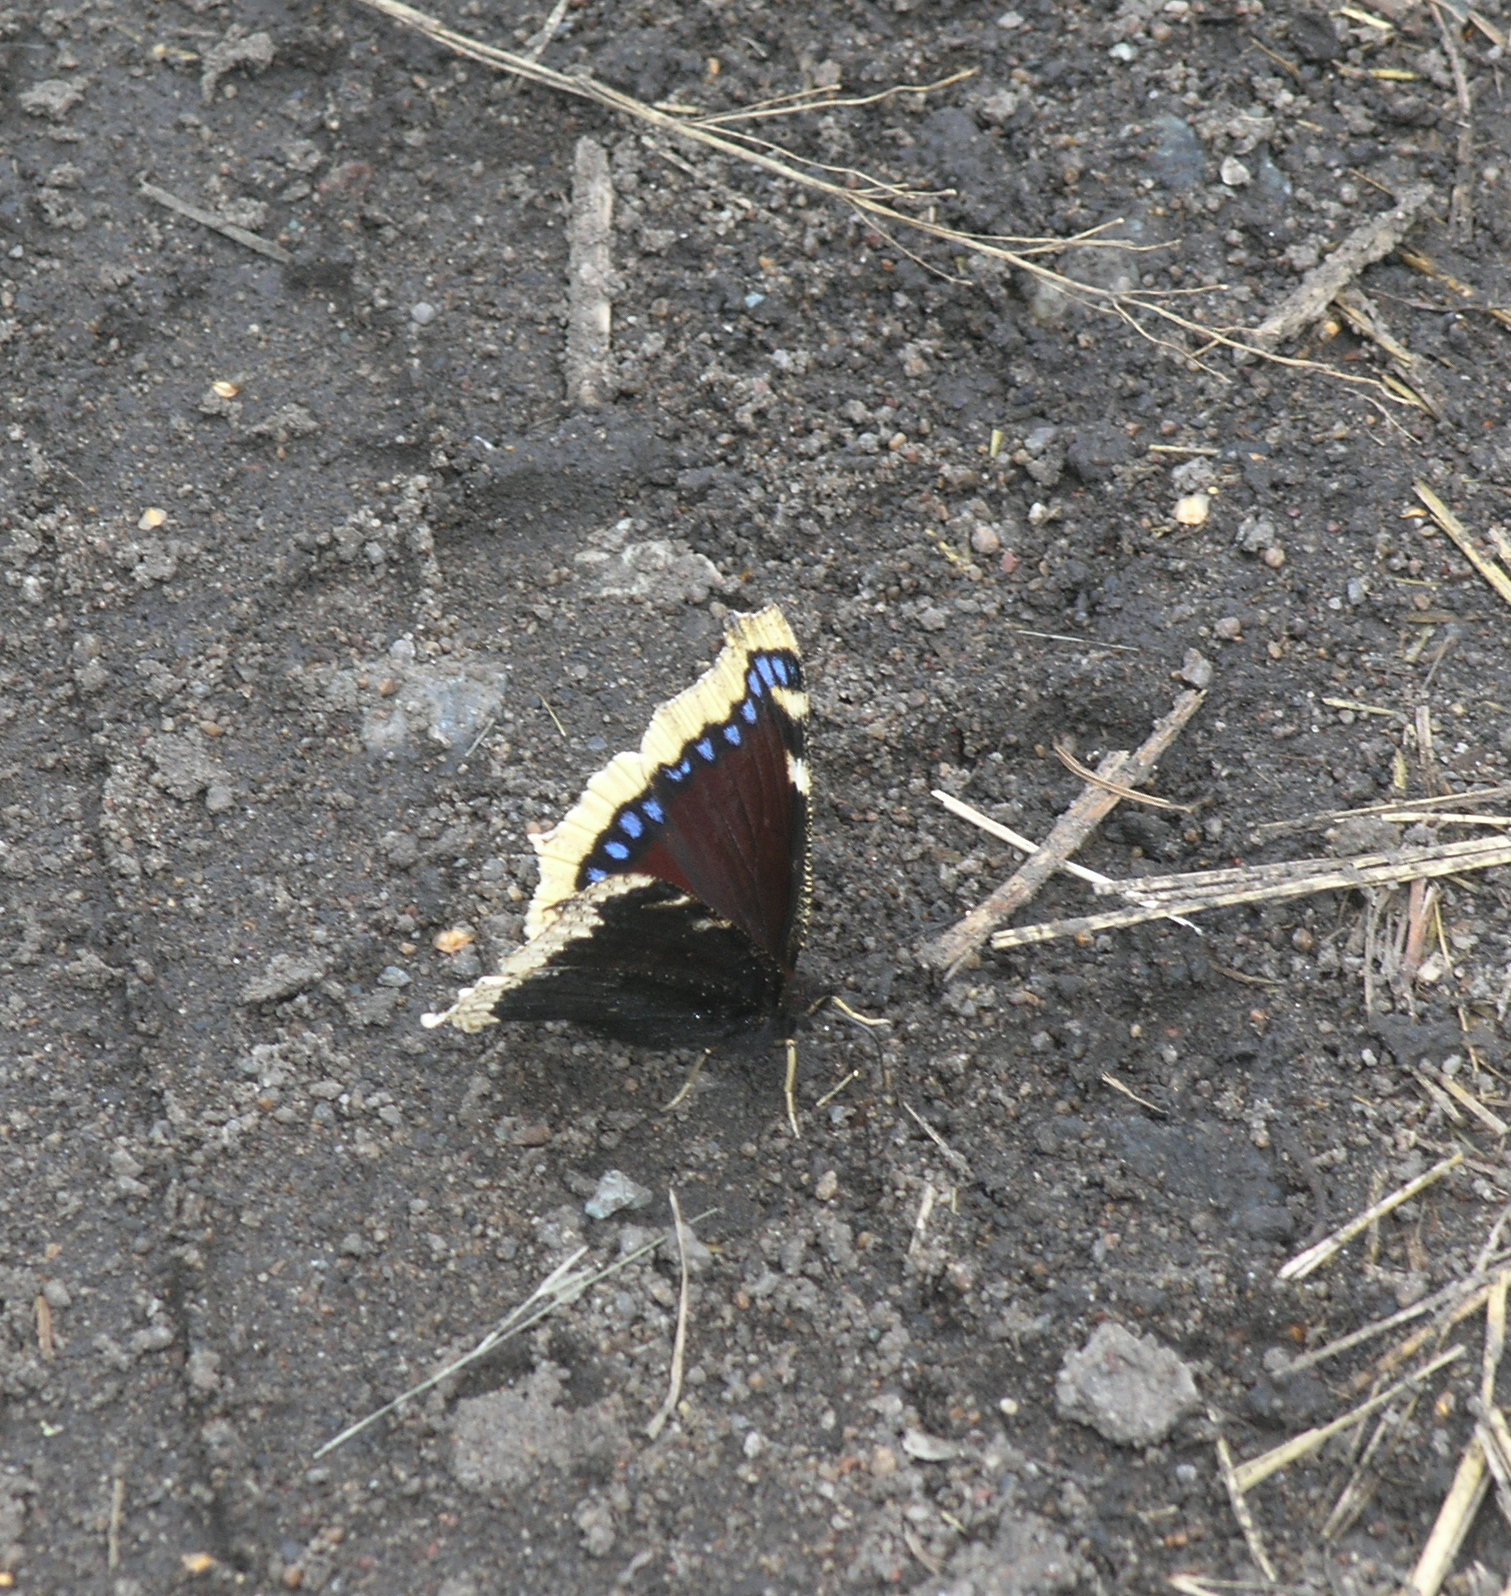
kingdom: Animalia
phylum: Arthropoda
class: Insecta
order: Lepidoptera
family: Nymphalidae
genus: Nymphalis
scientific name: Nymphalis antiopa
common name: Camberwell beauty
